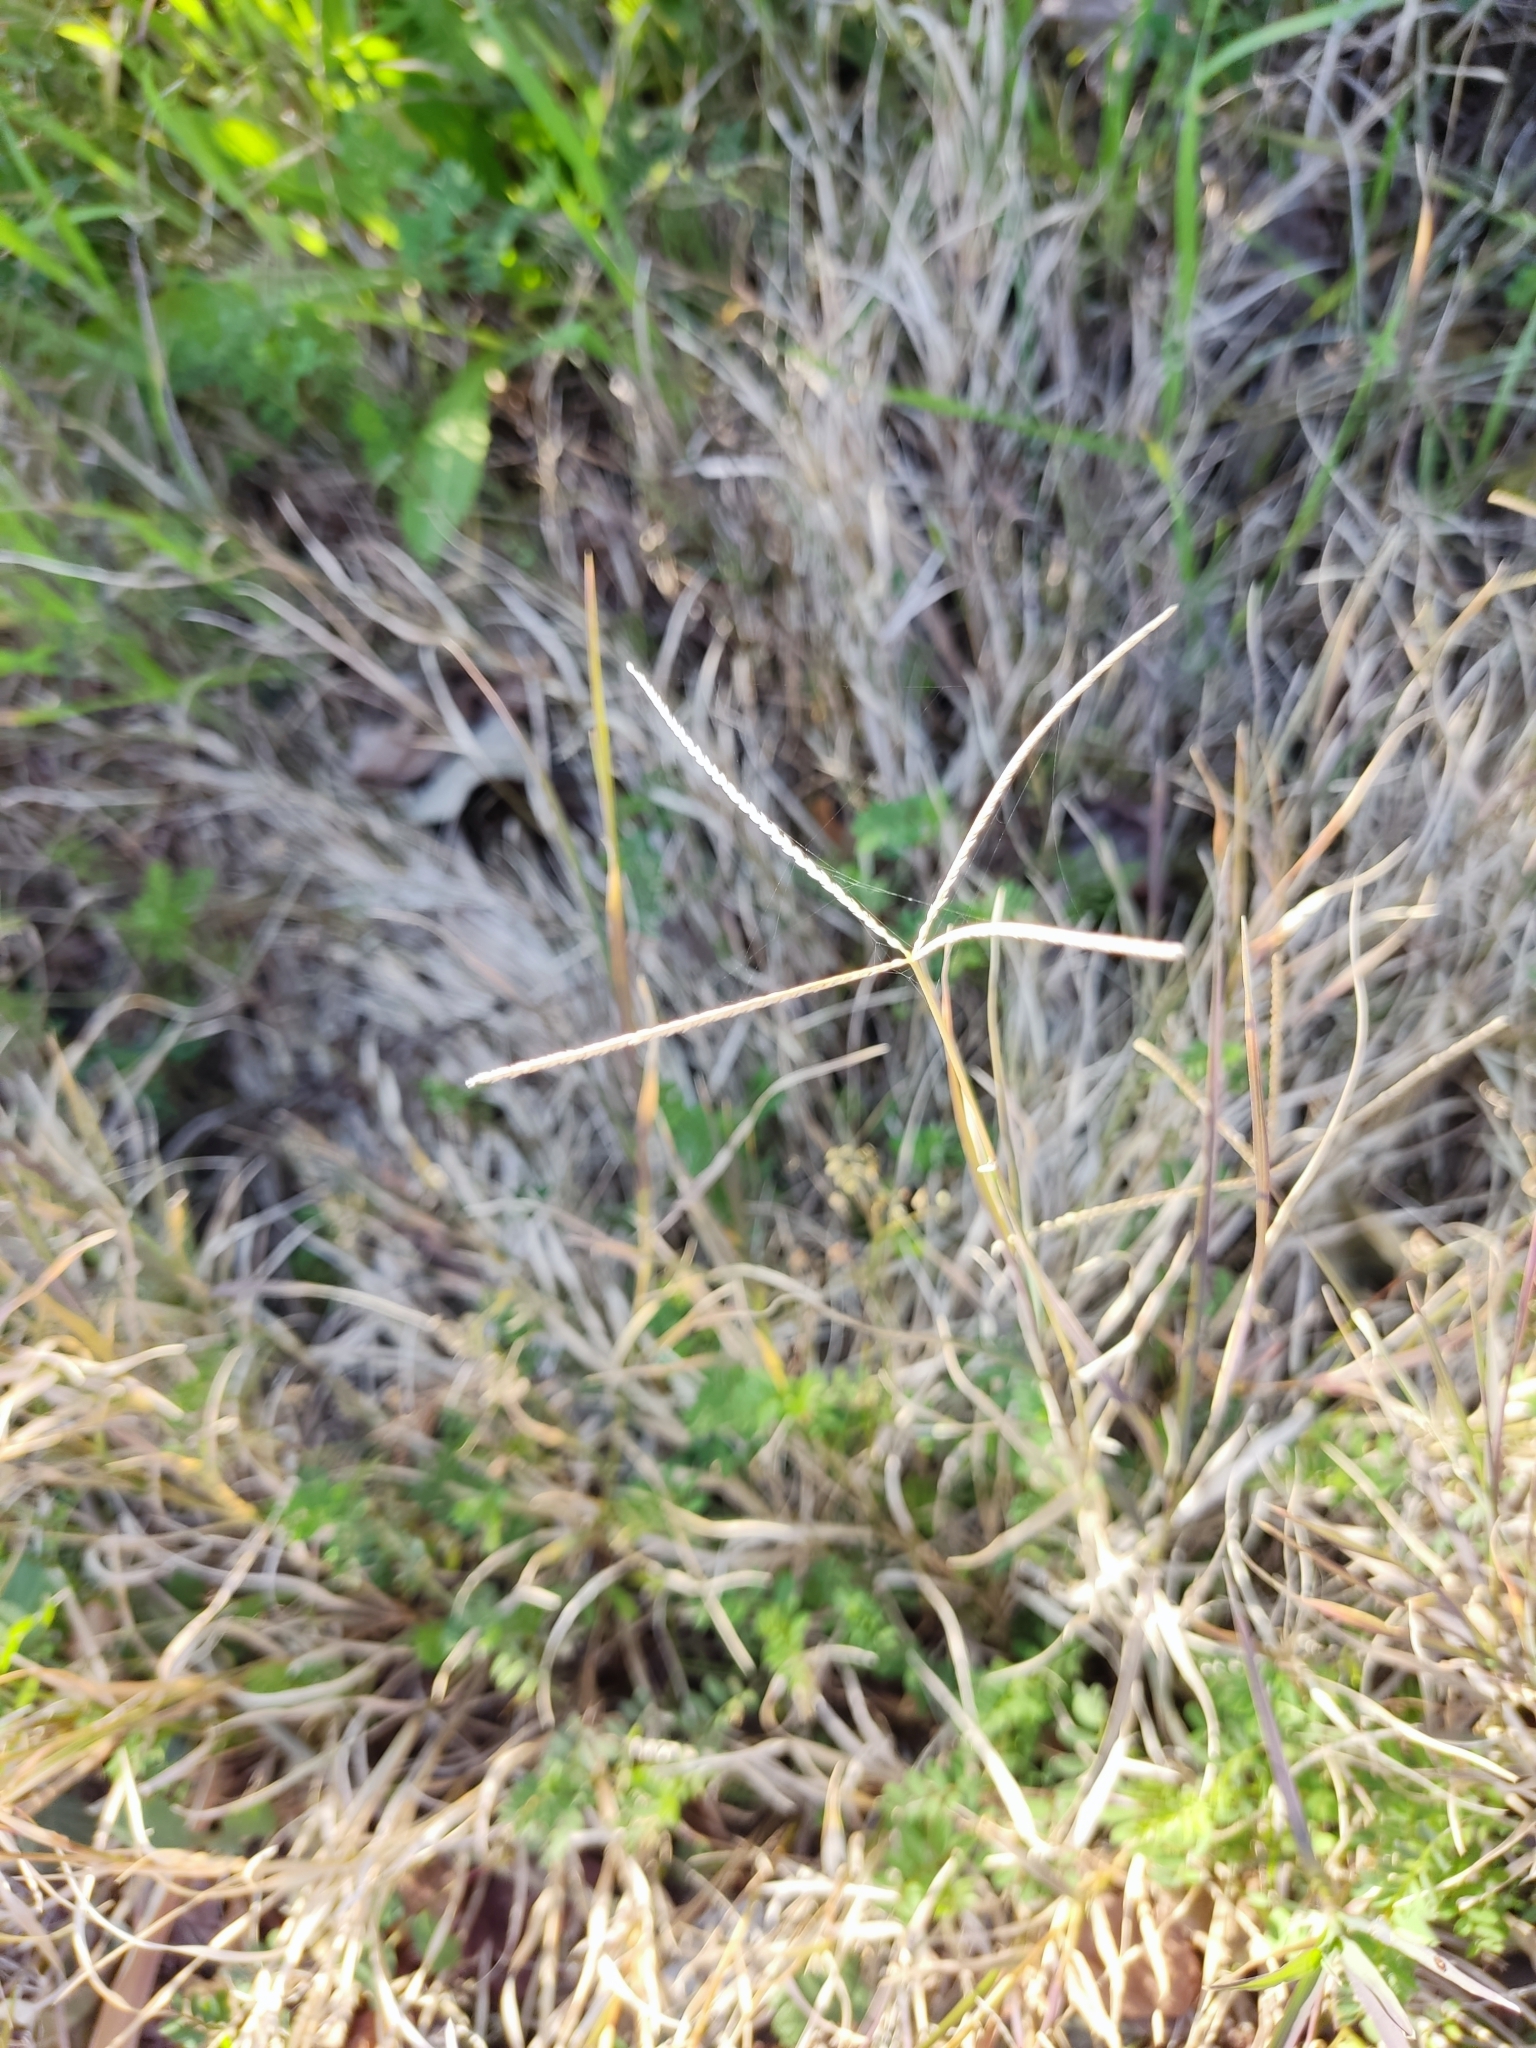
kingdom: Plantae
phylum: Tracheophyta
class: Liliopsida
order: Poales
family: Poaceae
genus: Cynodon
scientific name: Cynodon dactylon
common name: Bermuda grass
